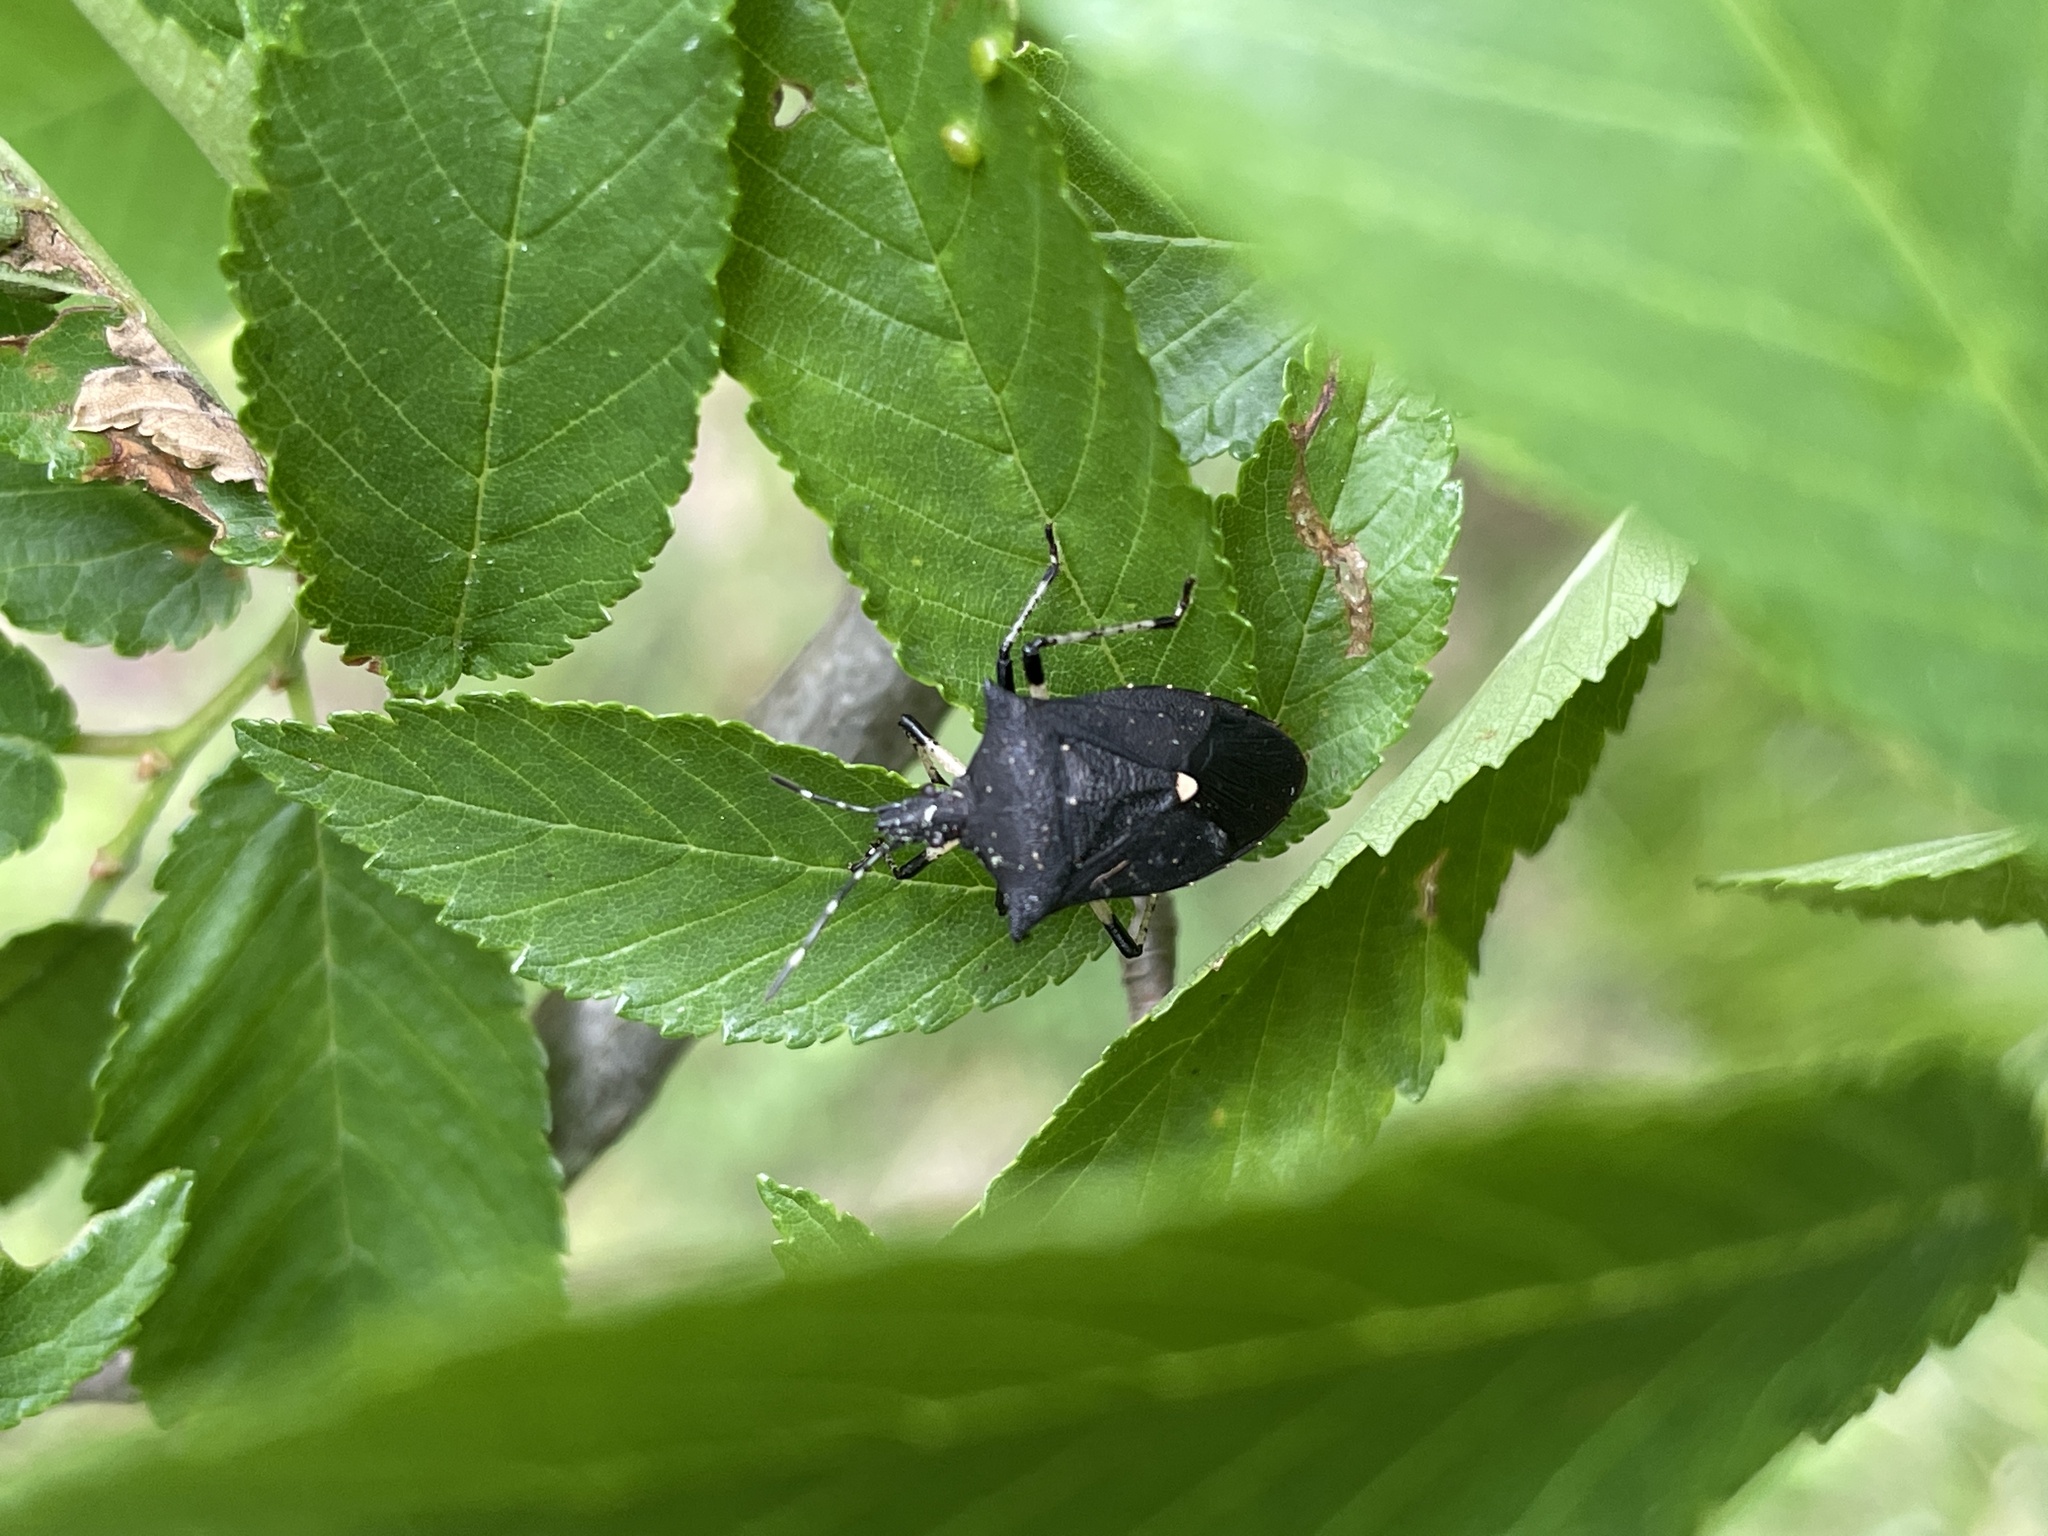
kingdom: Animalia
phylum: Arthropoda
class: Insecta
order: Hemiptera
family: Pentatomidae
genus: Proxys
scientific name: Proxys punctulatus
